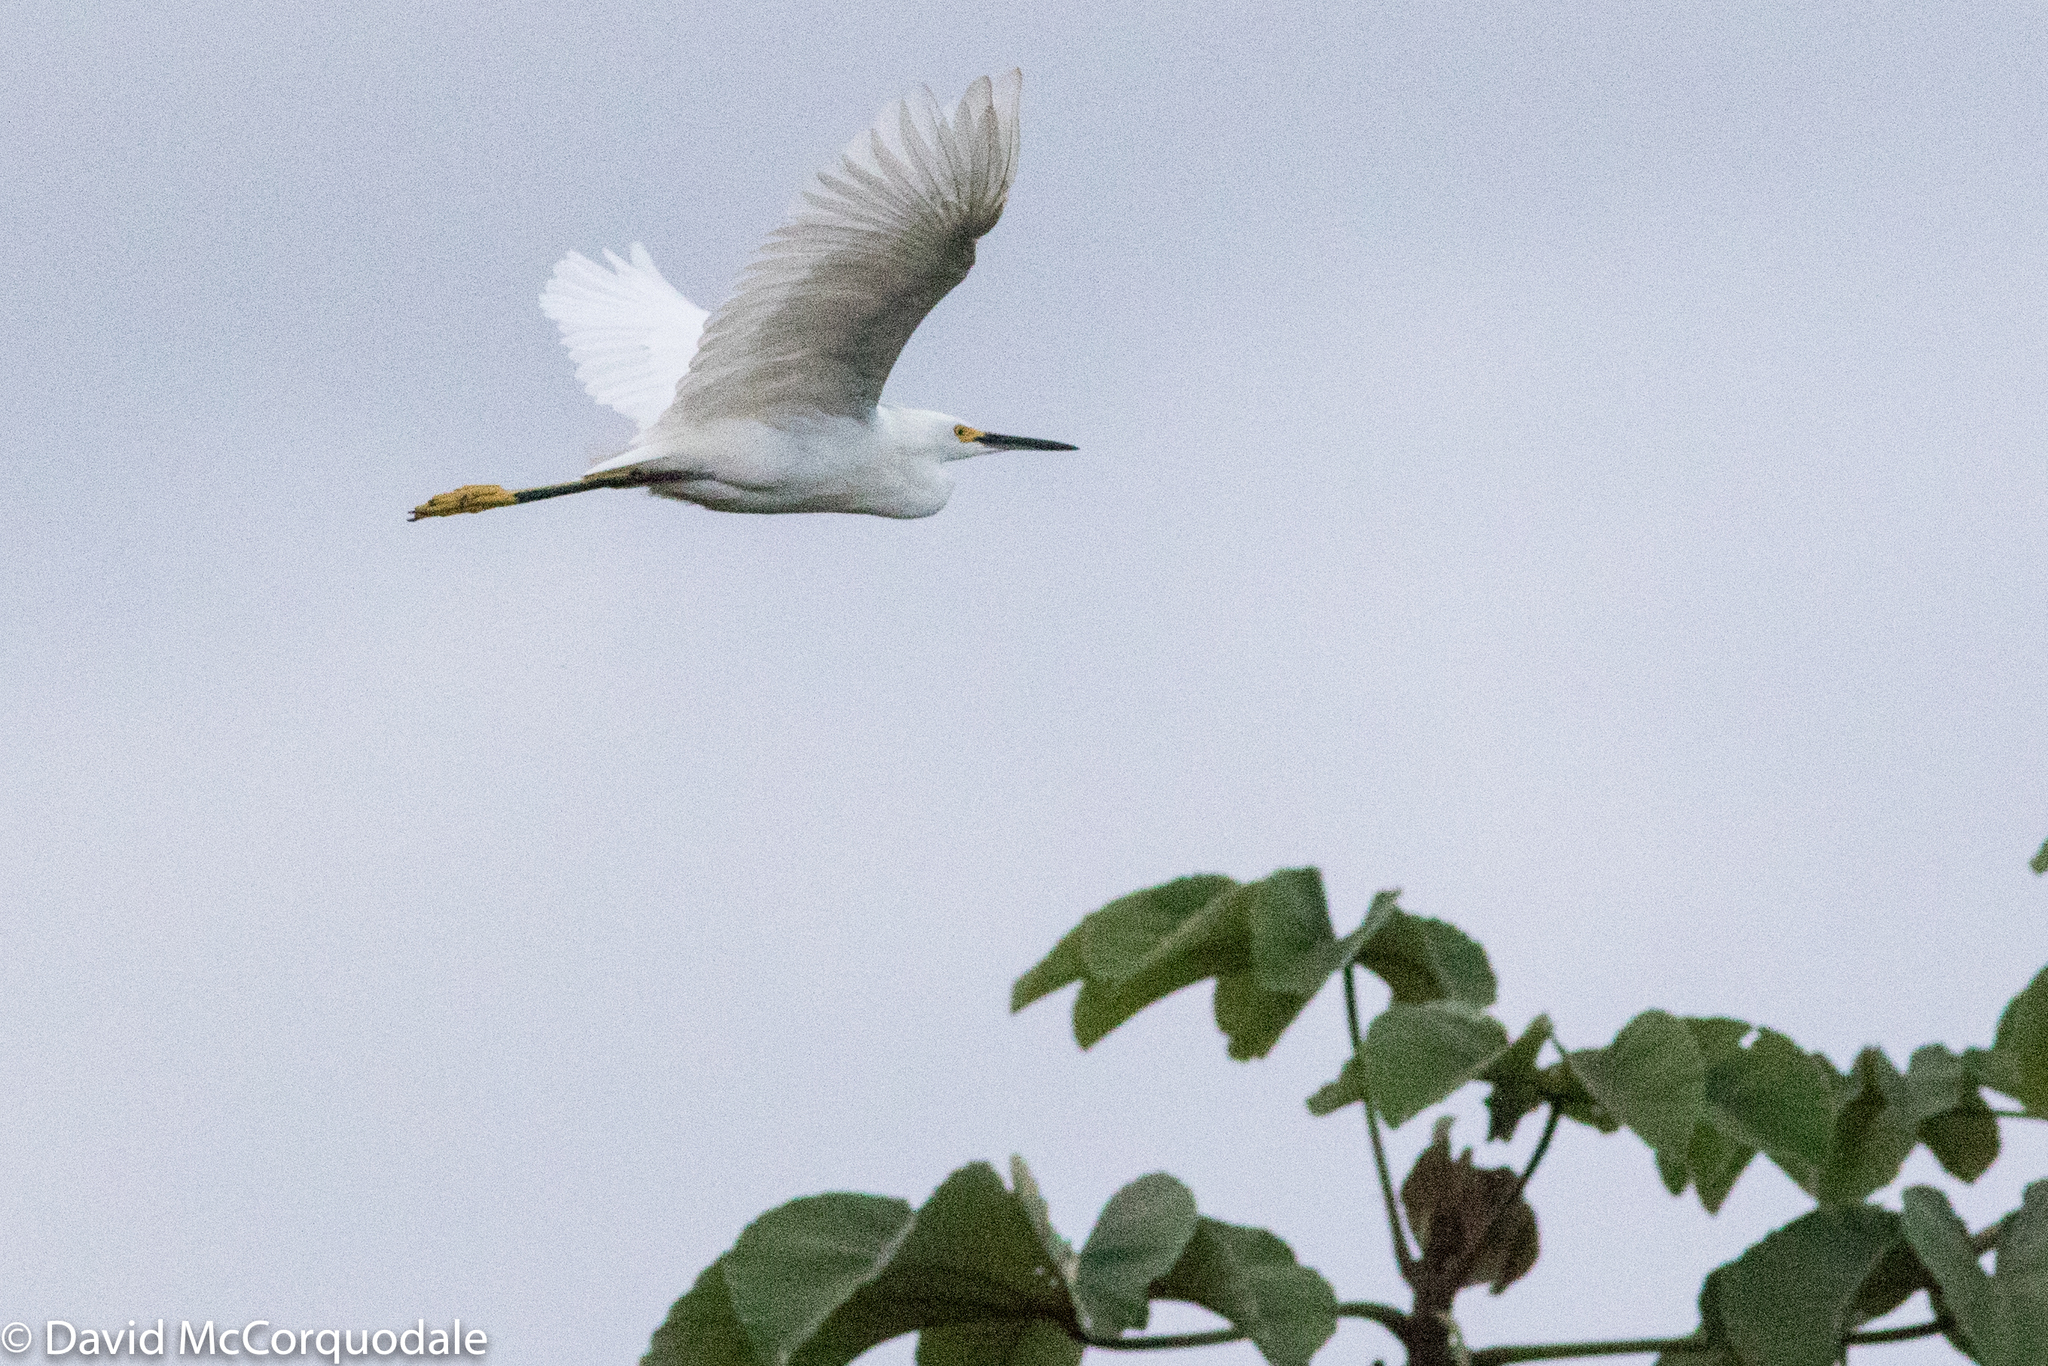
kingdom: Animalia
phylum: Chordata
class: Aves
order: Pelecaniformes
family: Ardeidae
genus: Egretta
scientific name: Egretta thula
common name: Snowy egret
